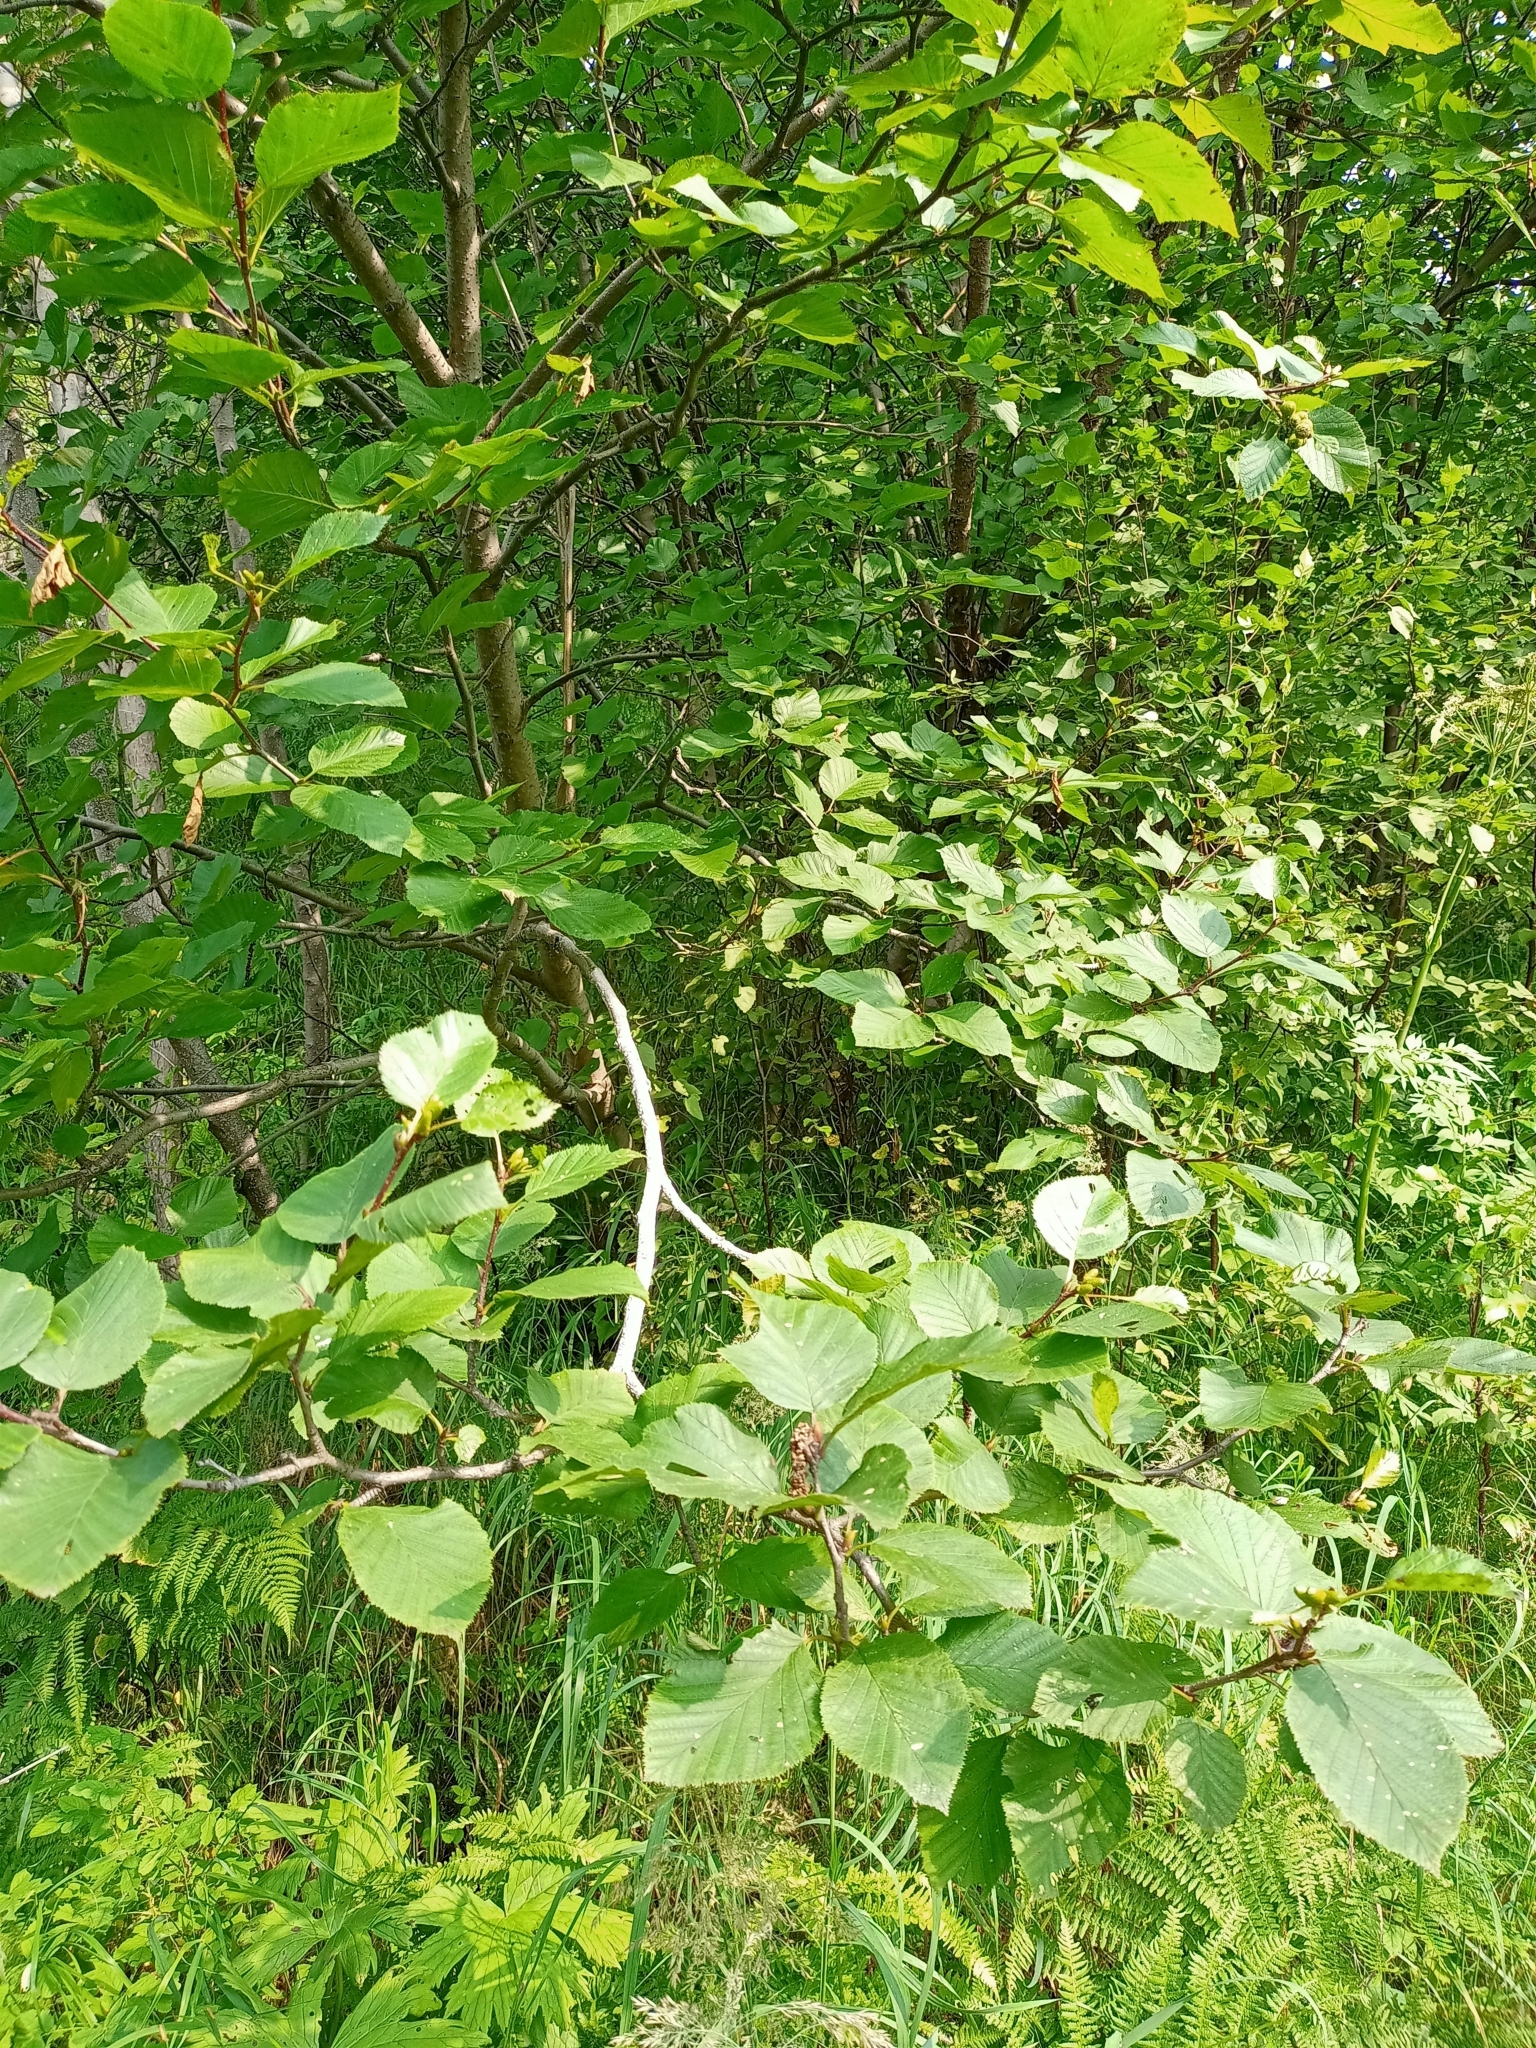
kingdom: Plantae
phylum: Tracheophyta
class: Magnoliopsida
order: Fagales
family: Betulaceae
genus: Alnus
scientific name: Alnus alnobetula
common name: Green alder
